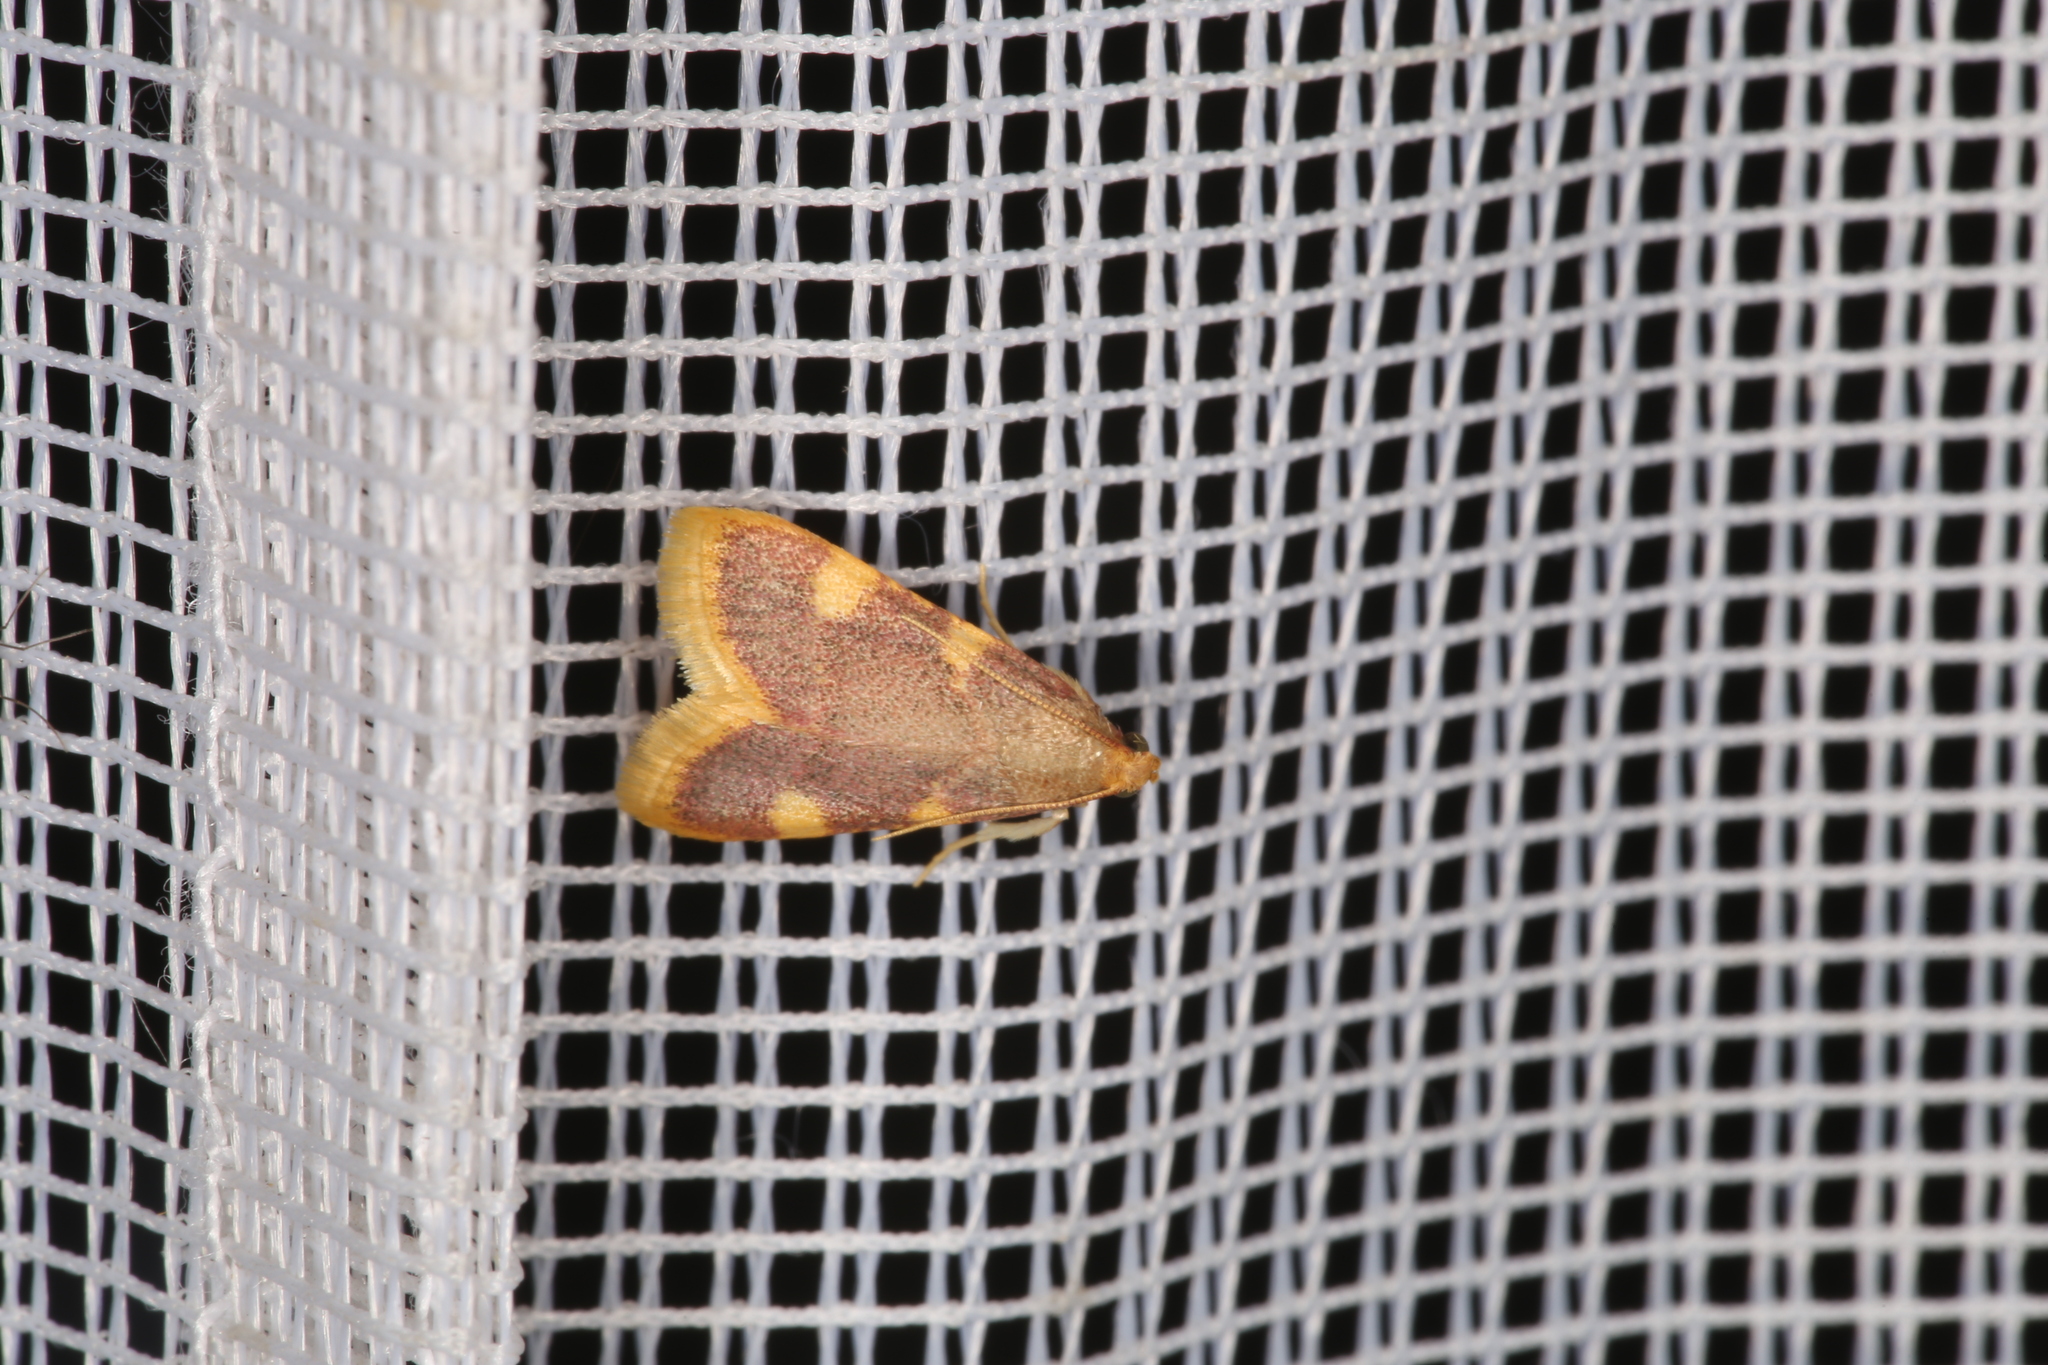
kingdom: Animalia
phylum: Arthropoda
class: Insecta
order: Lepidoptera
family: Pyralidae
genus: Hypsopygia
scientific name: Hypsopygia costalis
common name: Gold triangle
